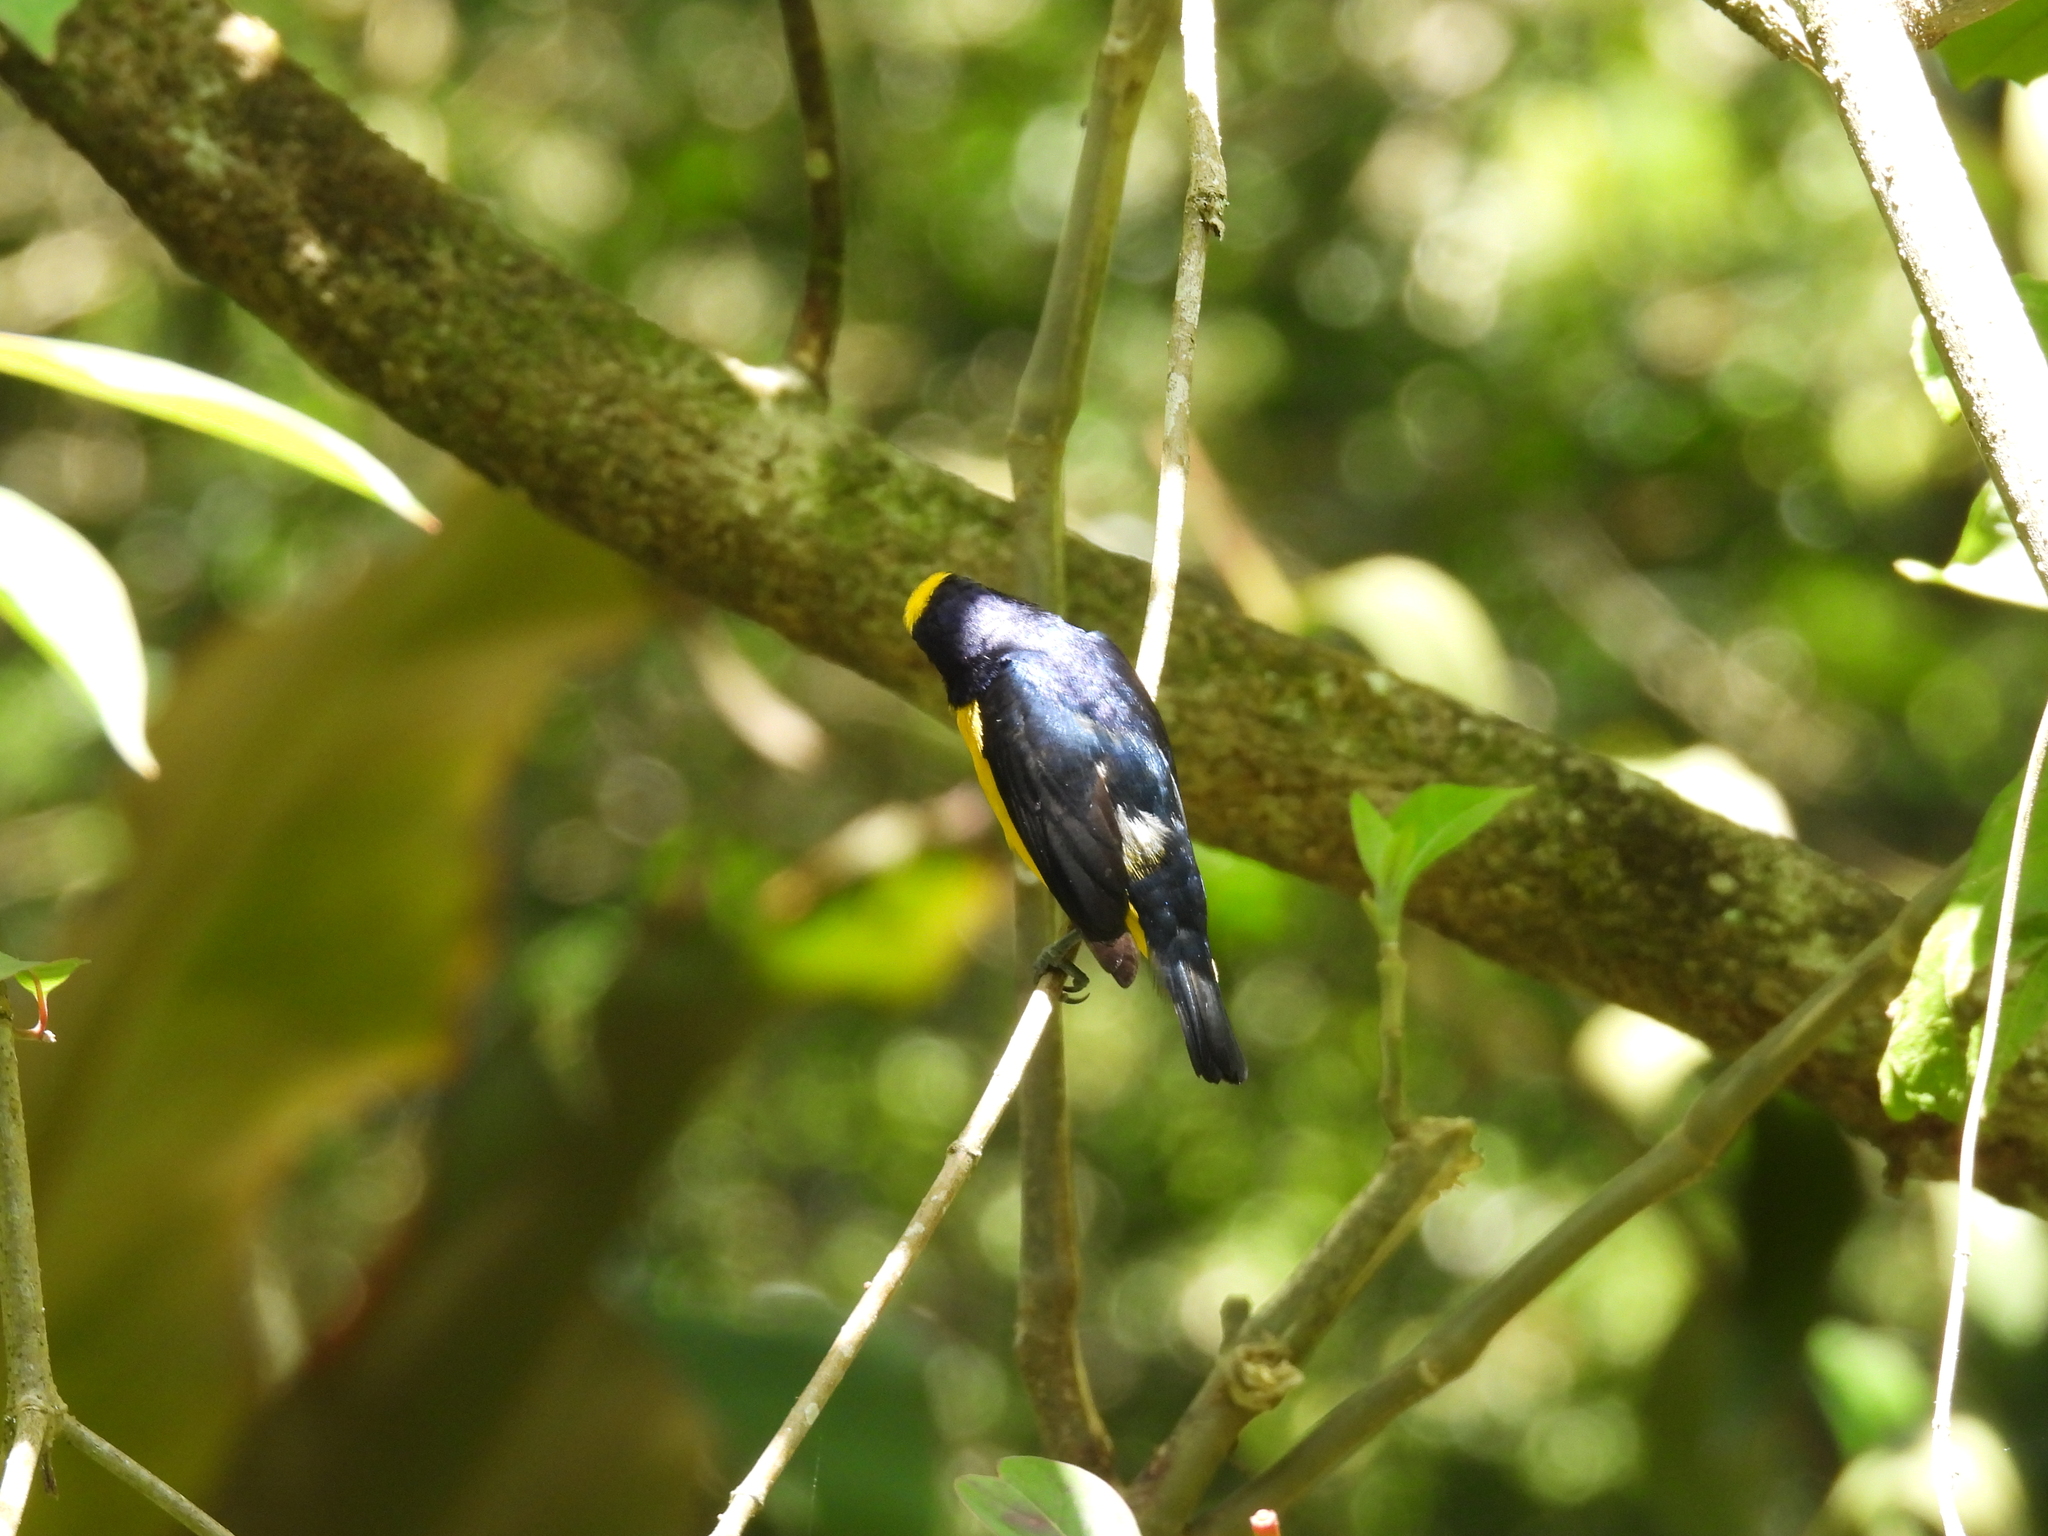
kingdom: Animalia
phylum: Chordata
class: Aves
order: Passeriformes
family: Fringillidae
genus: Euphonia
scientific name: Euphonia laniirostris
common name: Thick-billed euphonia
